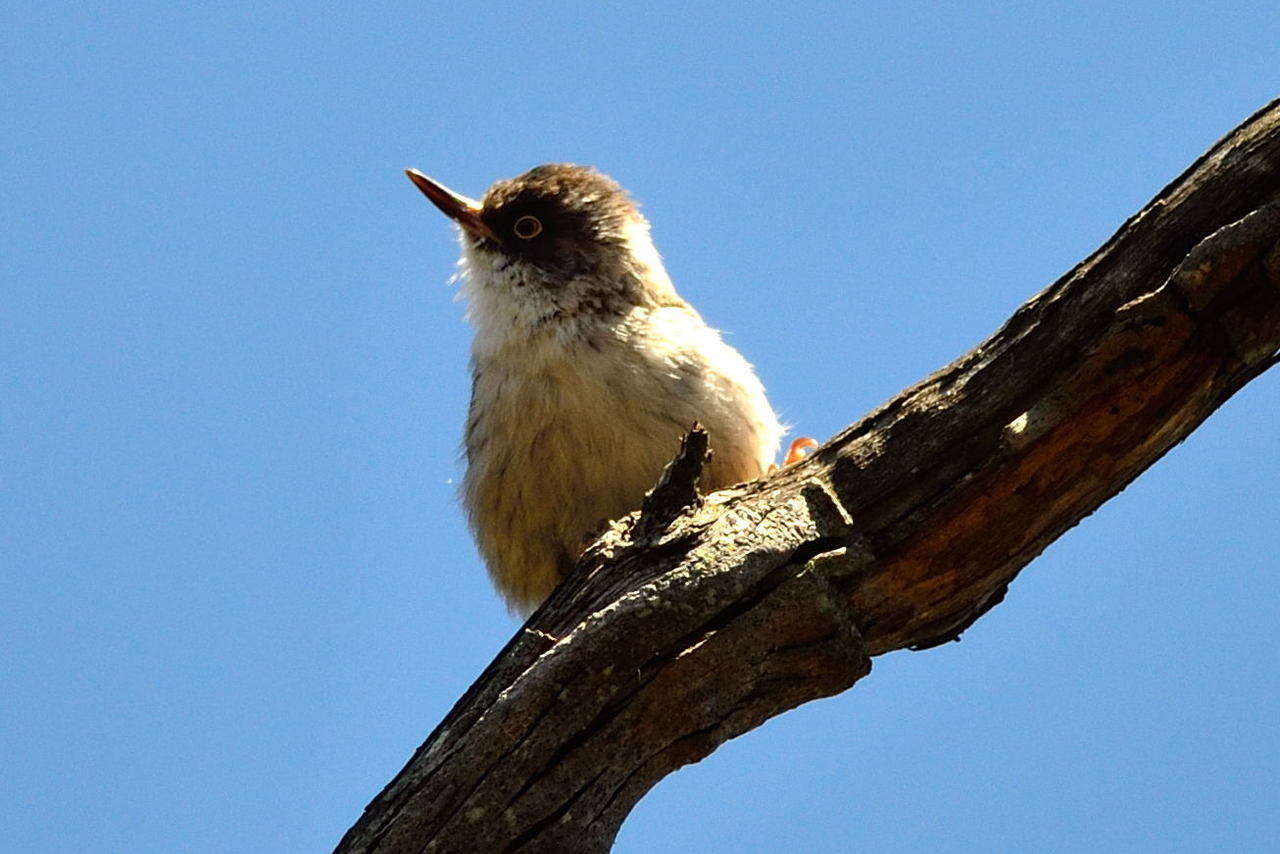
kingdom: Animalia
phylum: Chordata
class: Aves
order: Passeriformes
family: Neosittidae
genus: Daphoenositta
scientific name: Daphoenositta chrysoptera
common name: Varied sittella
